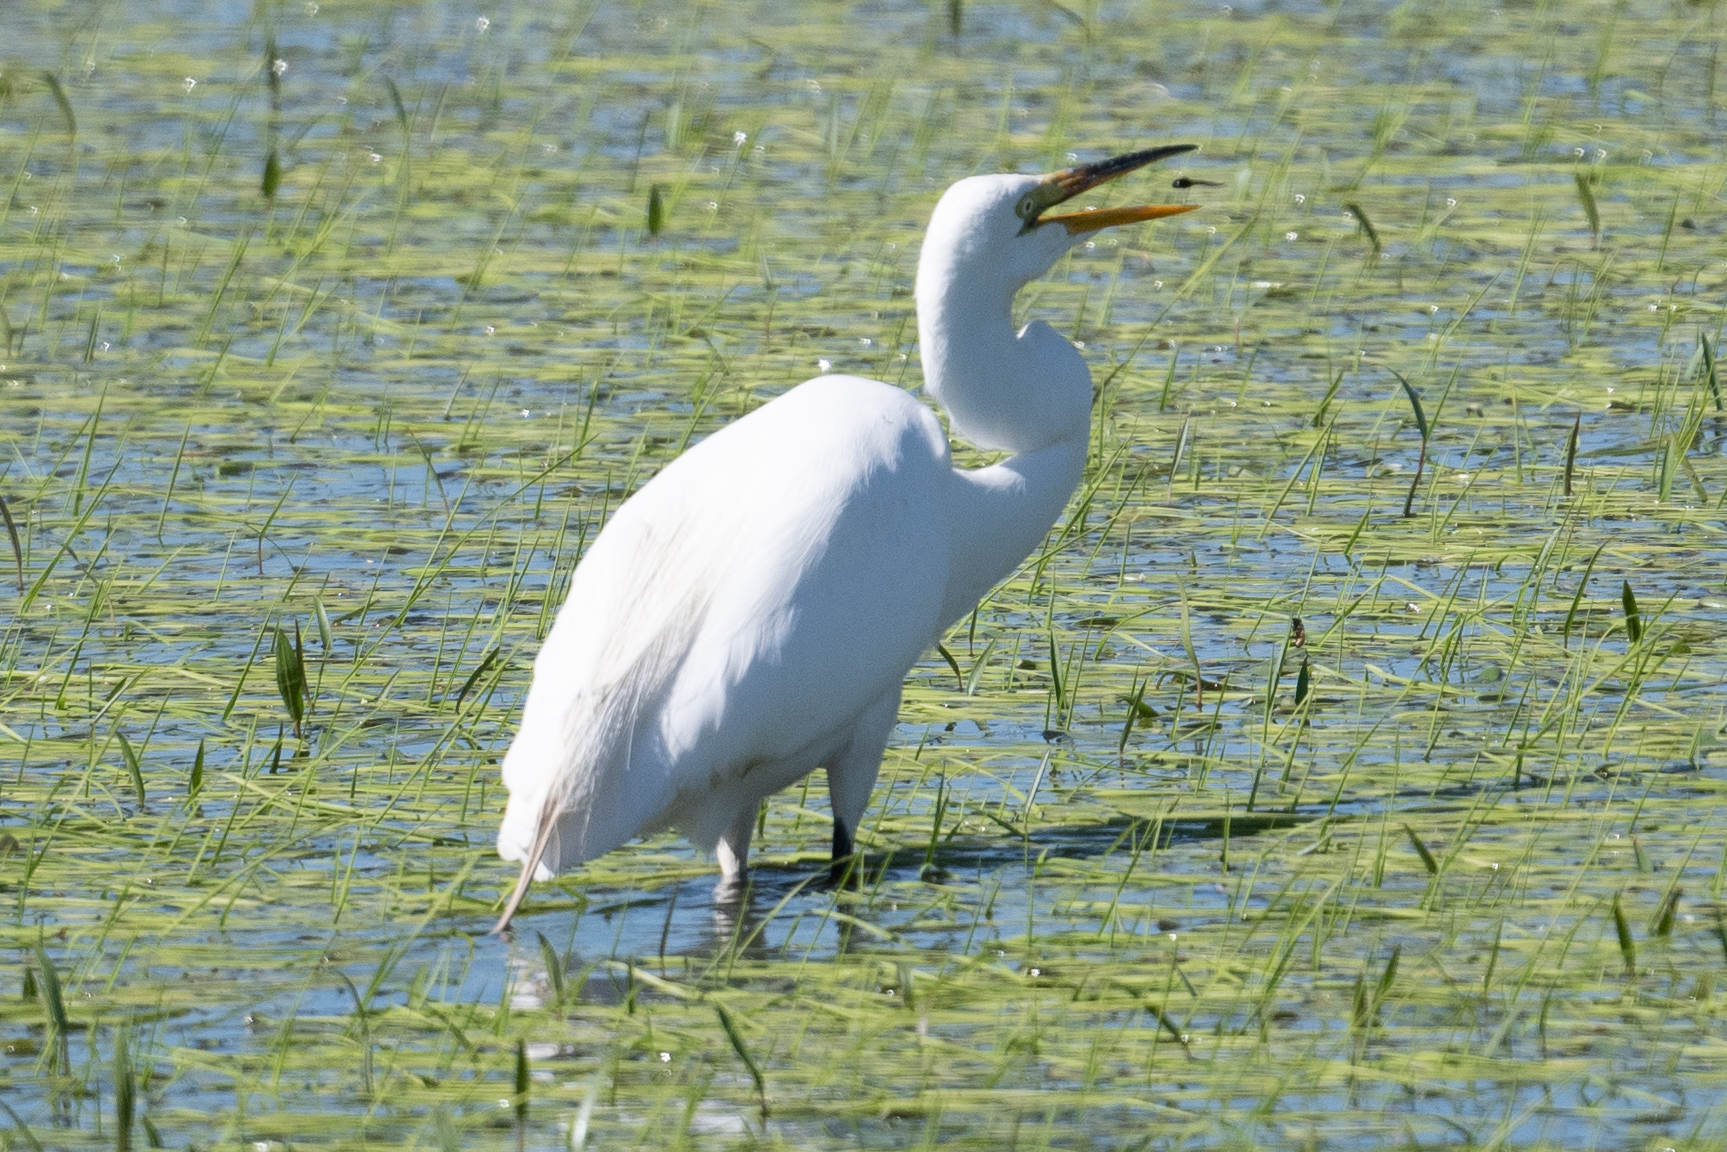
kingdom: Animalia
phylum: Chordata
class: Aves
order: Pelecaniformes
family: Ardeidae
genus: Ardea
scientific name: Ardea alba
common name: Great egret
